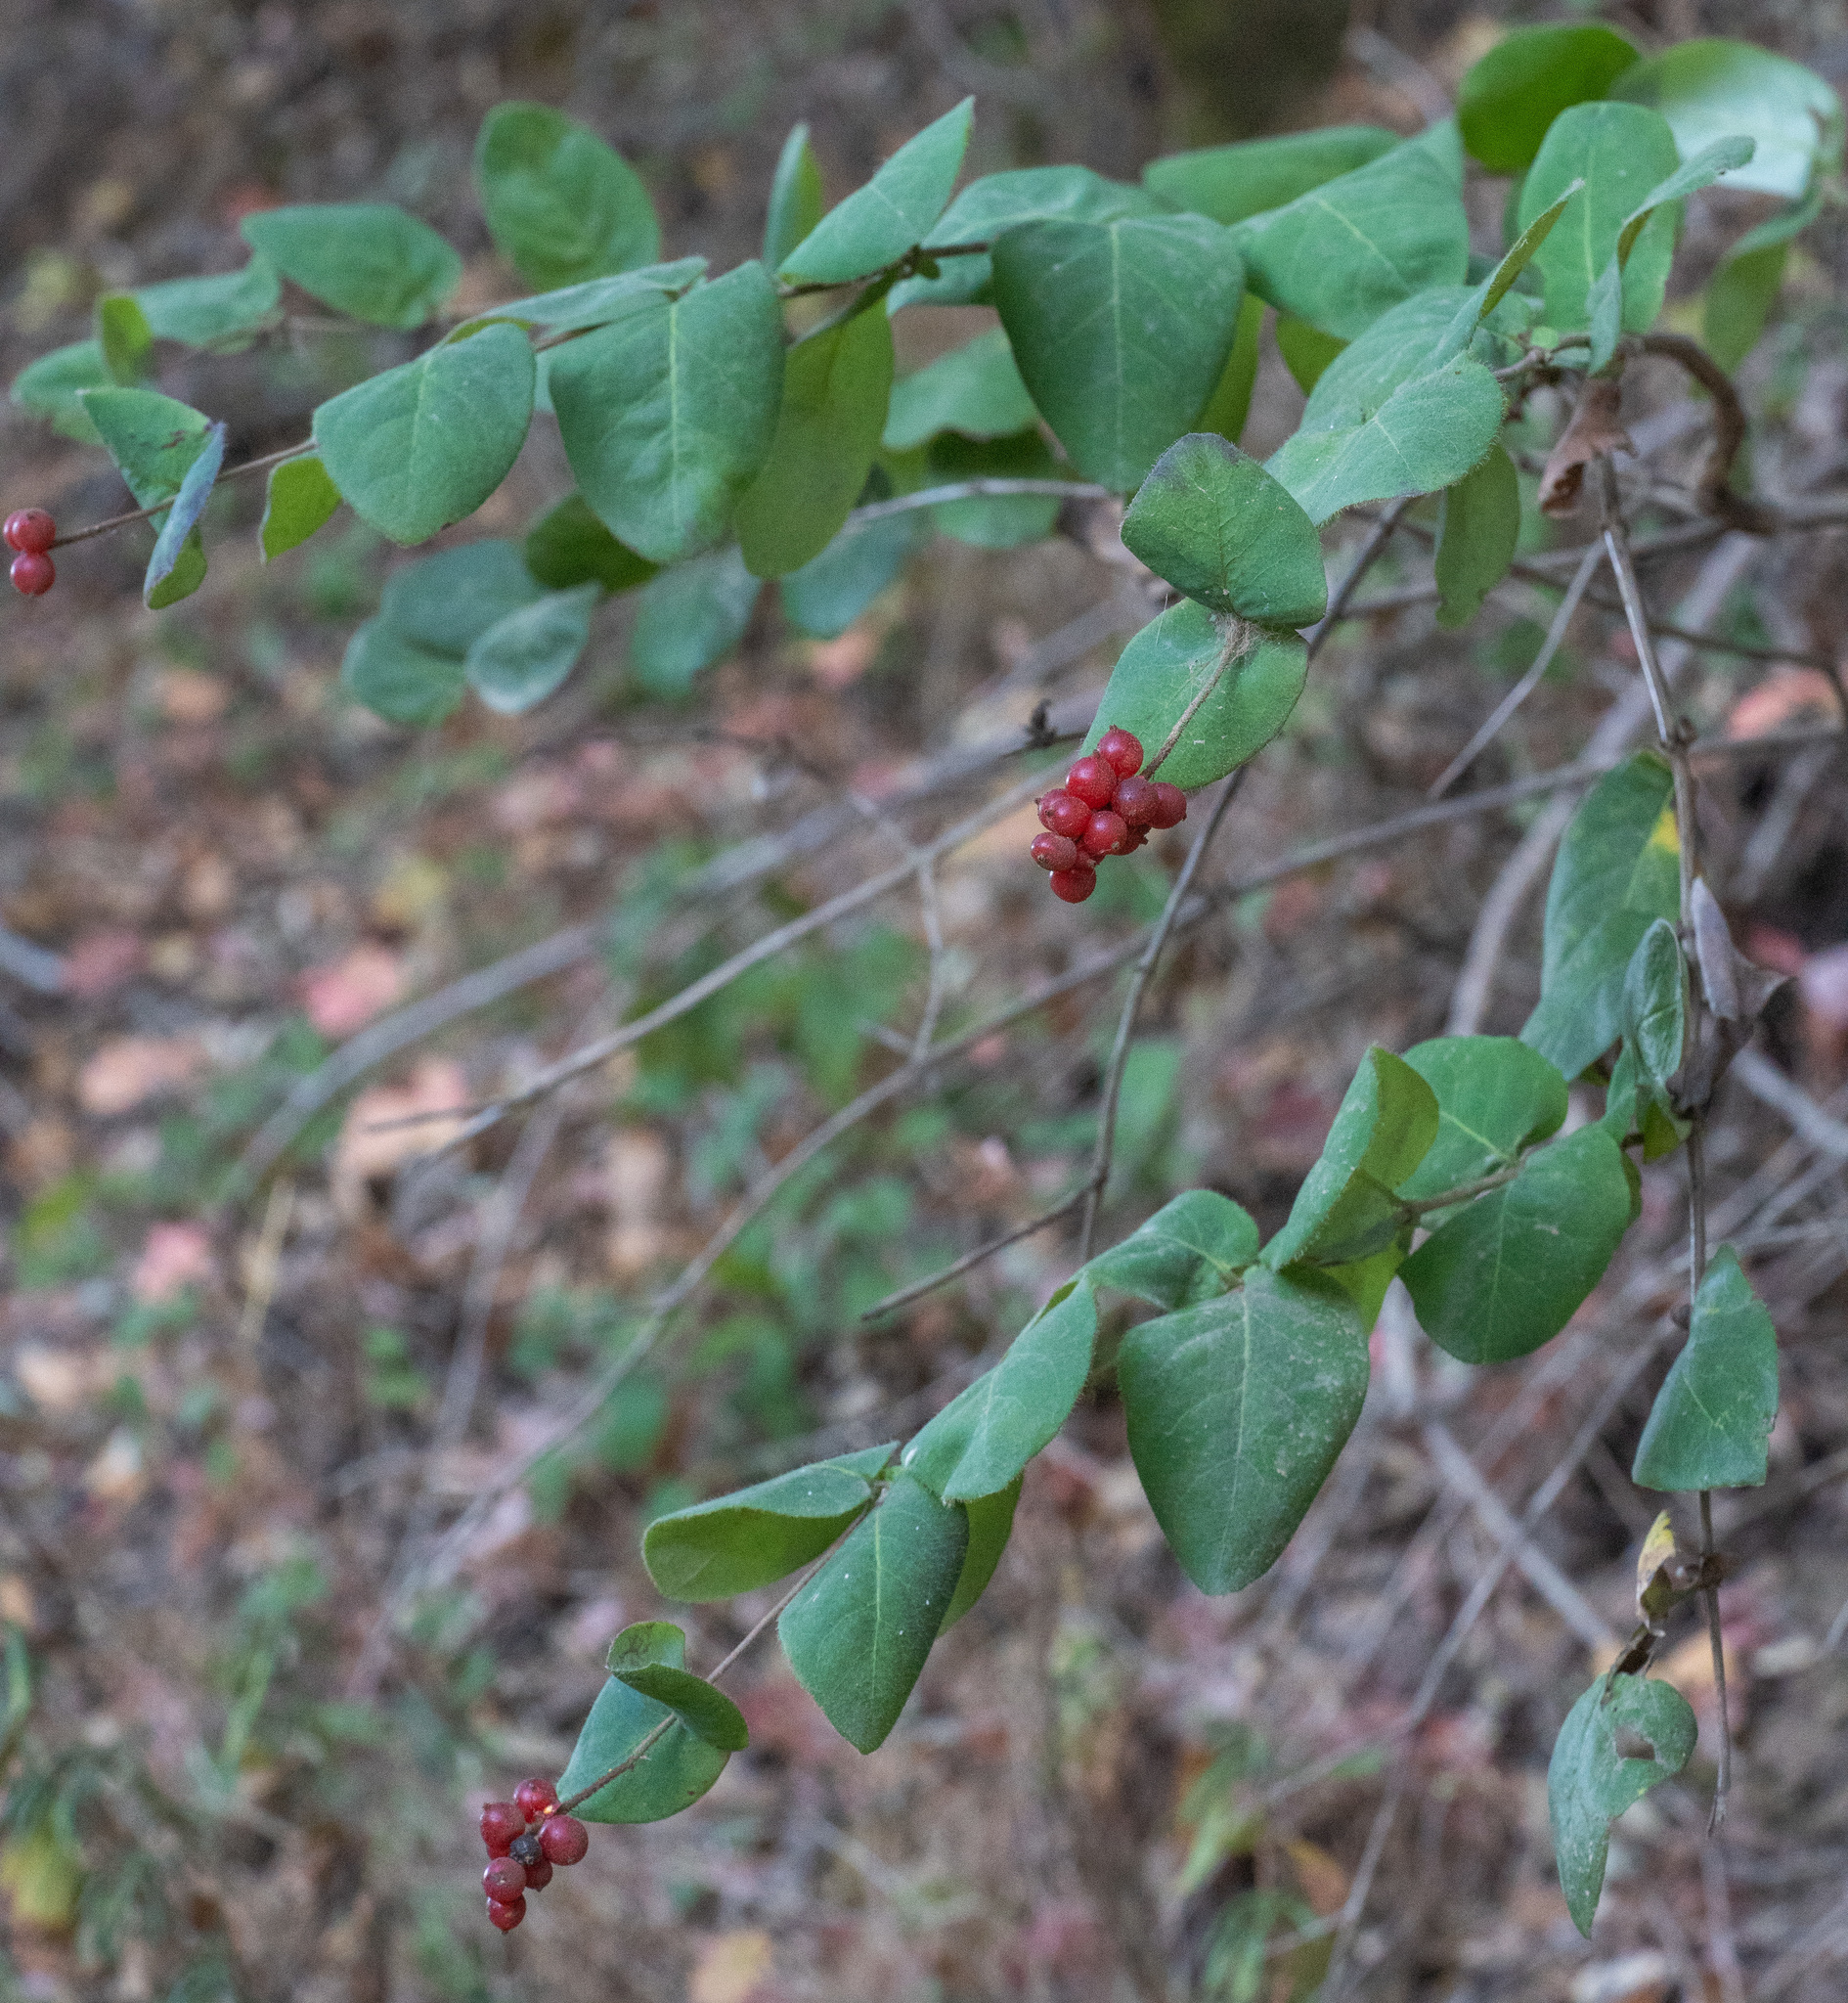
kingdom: Plantae
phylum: Tracheophyta
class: Magnoliopsida
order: Dipsacales
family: Caprifoliaceae
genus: Lonicera
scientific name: Lonicera hispidula
